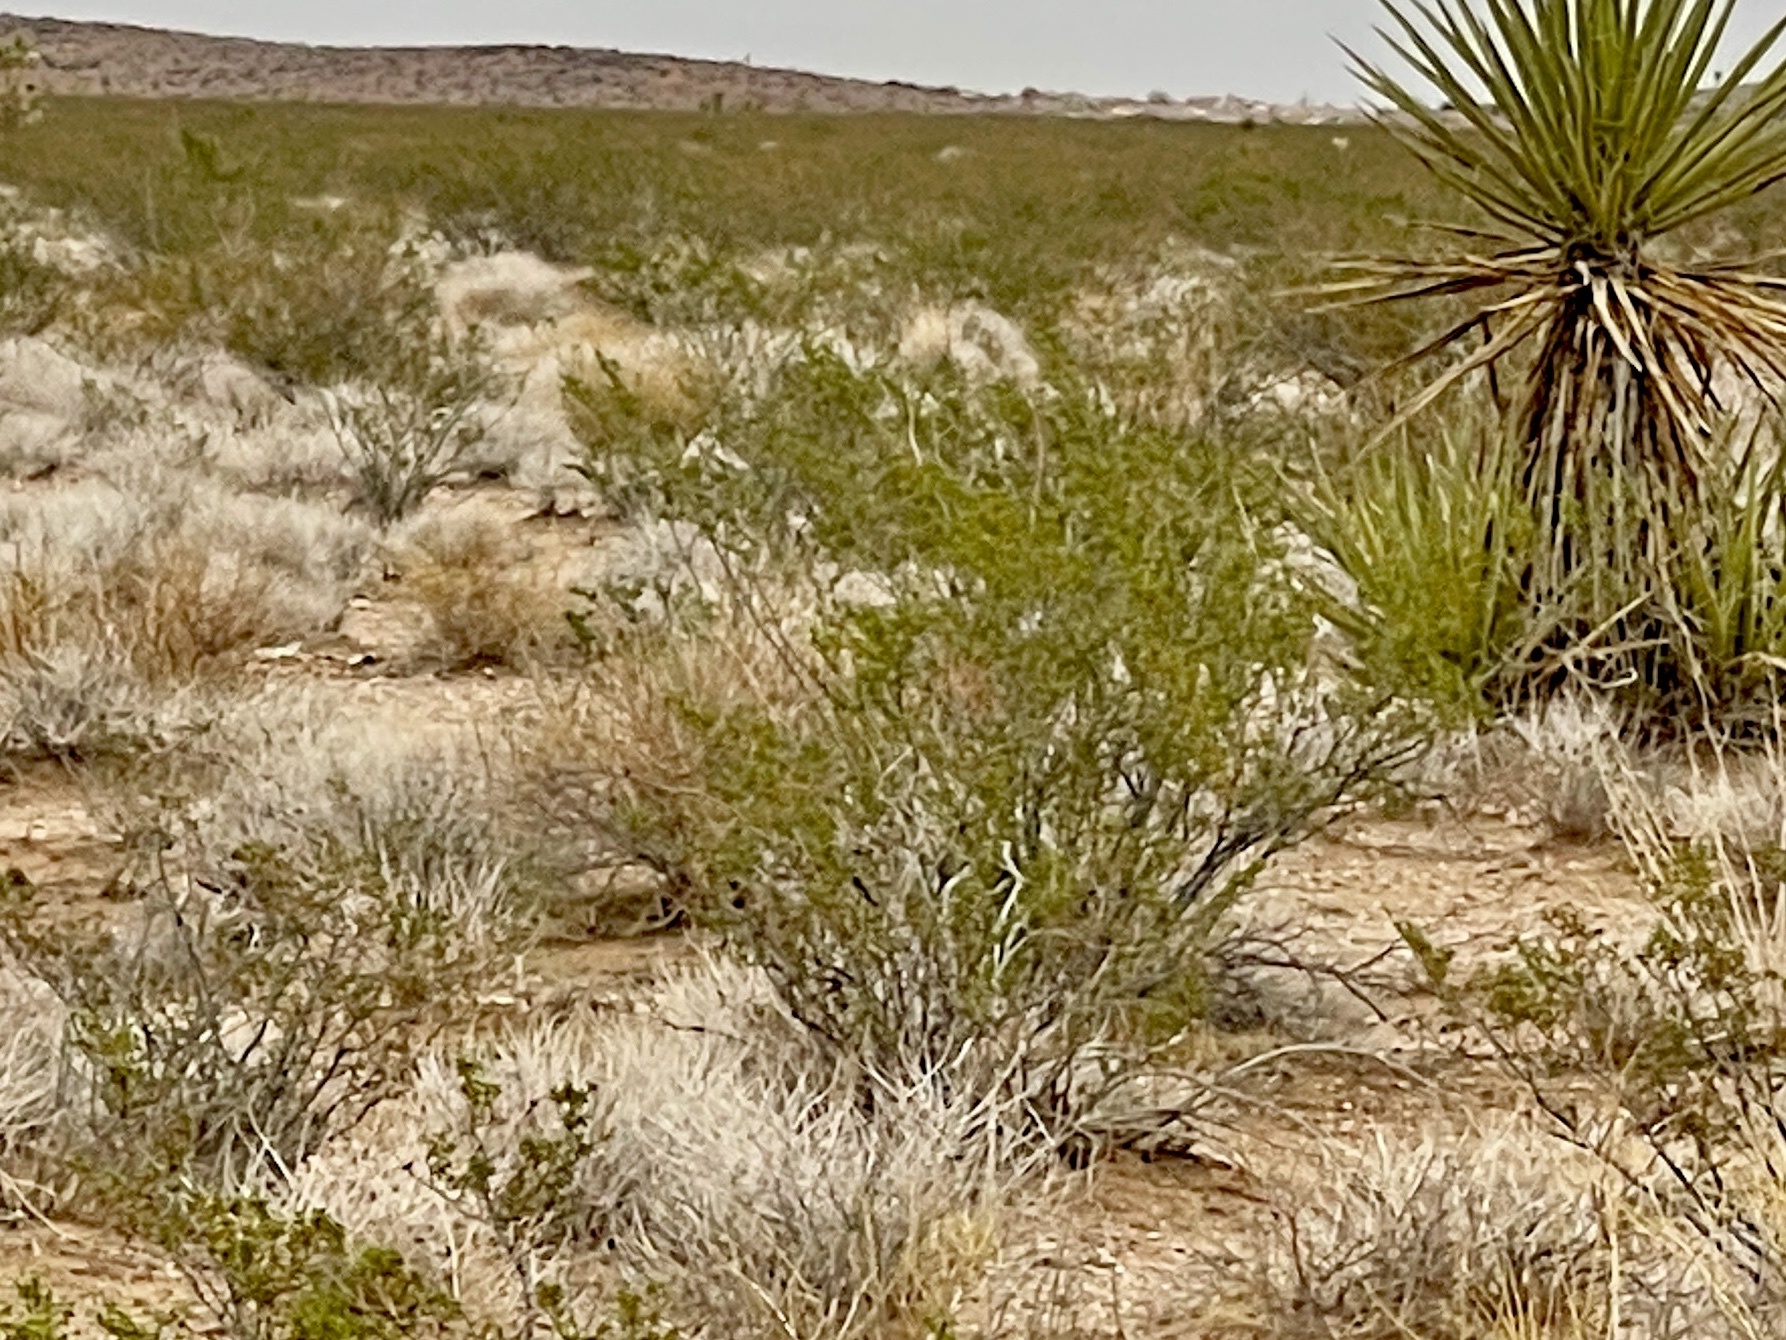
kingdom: Plantae
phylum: Tracheophyta
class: Magnoliopsida
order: Zygophyllales
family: Zygophyllaceae
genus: Larrea
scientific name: Larrea tridentata
